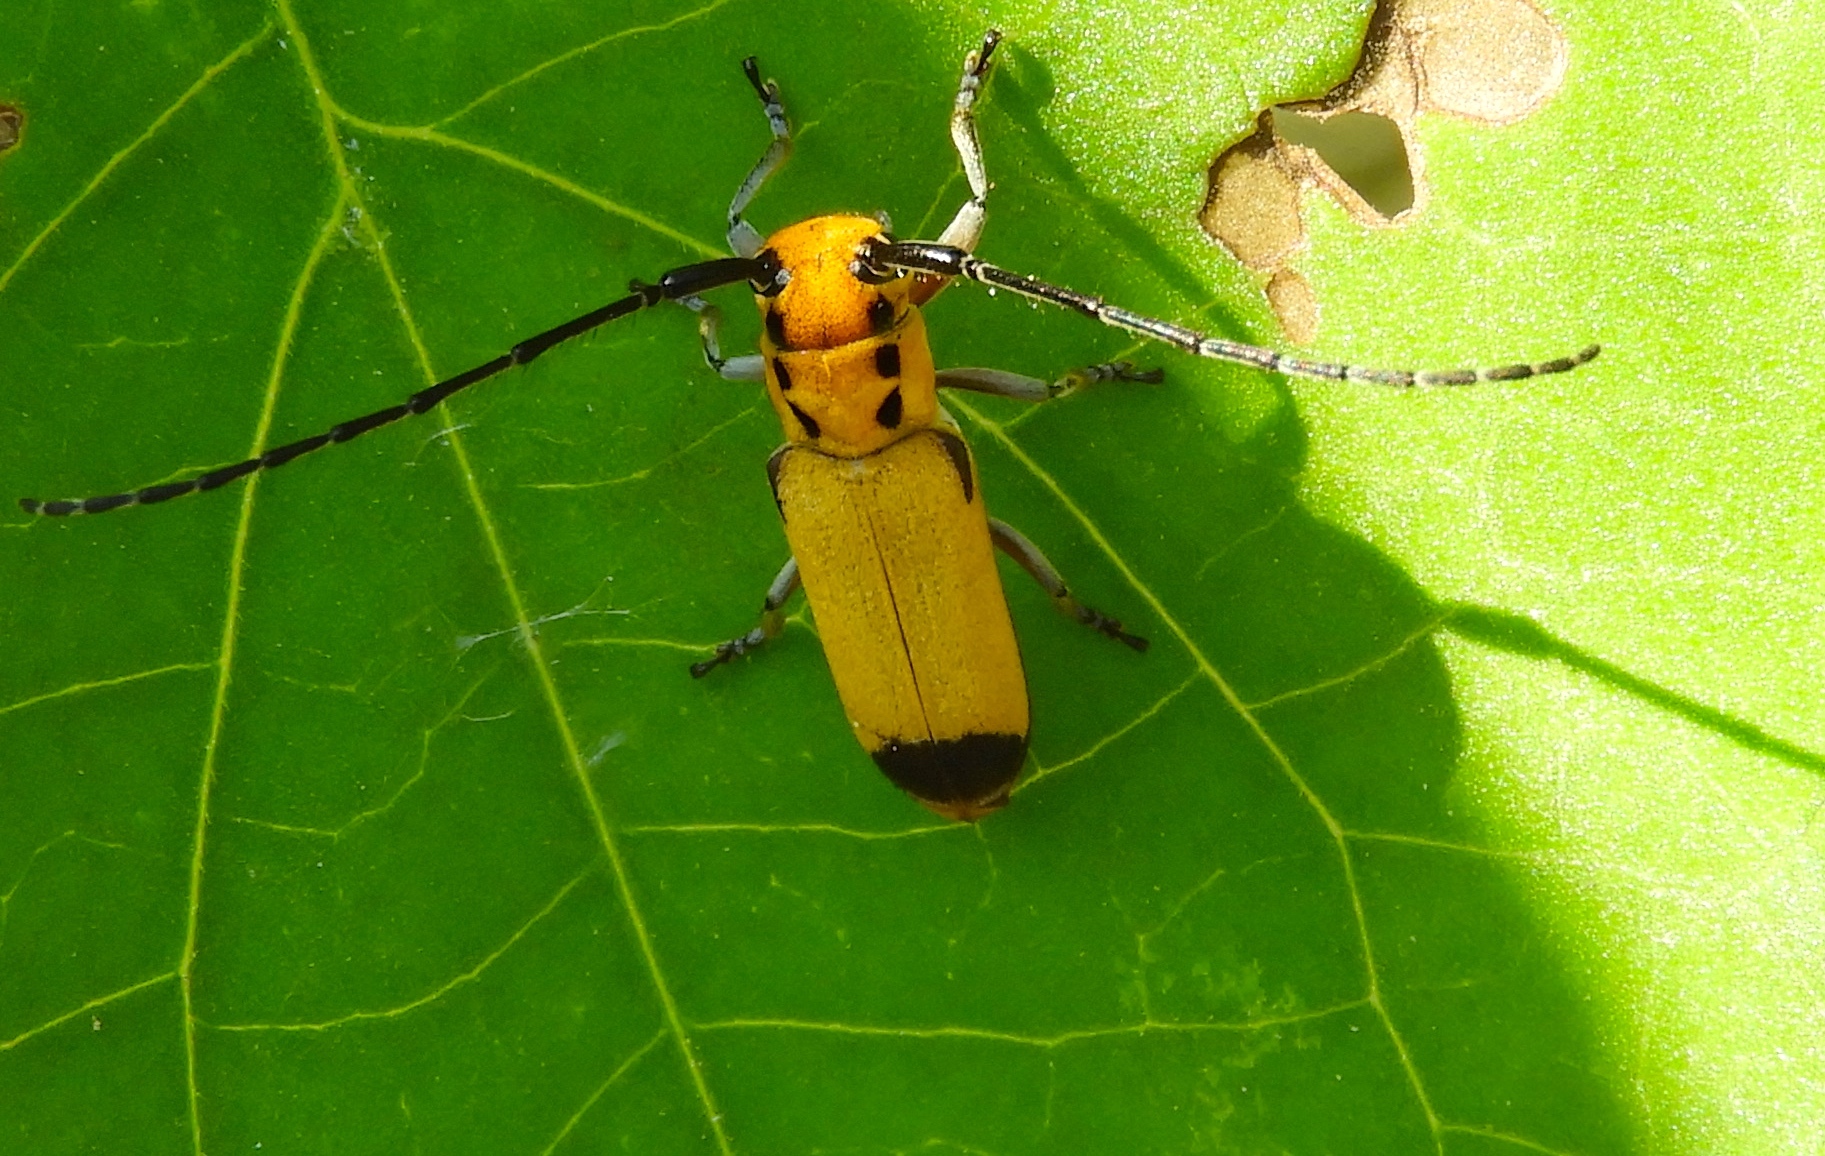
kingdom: Animalia
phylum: Arthropoda
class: Insecta
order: Coleoptera
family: Cerambycidae
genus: Essostrutha
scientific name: Essostrutha laeta
